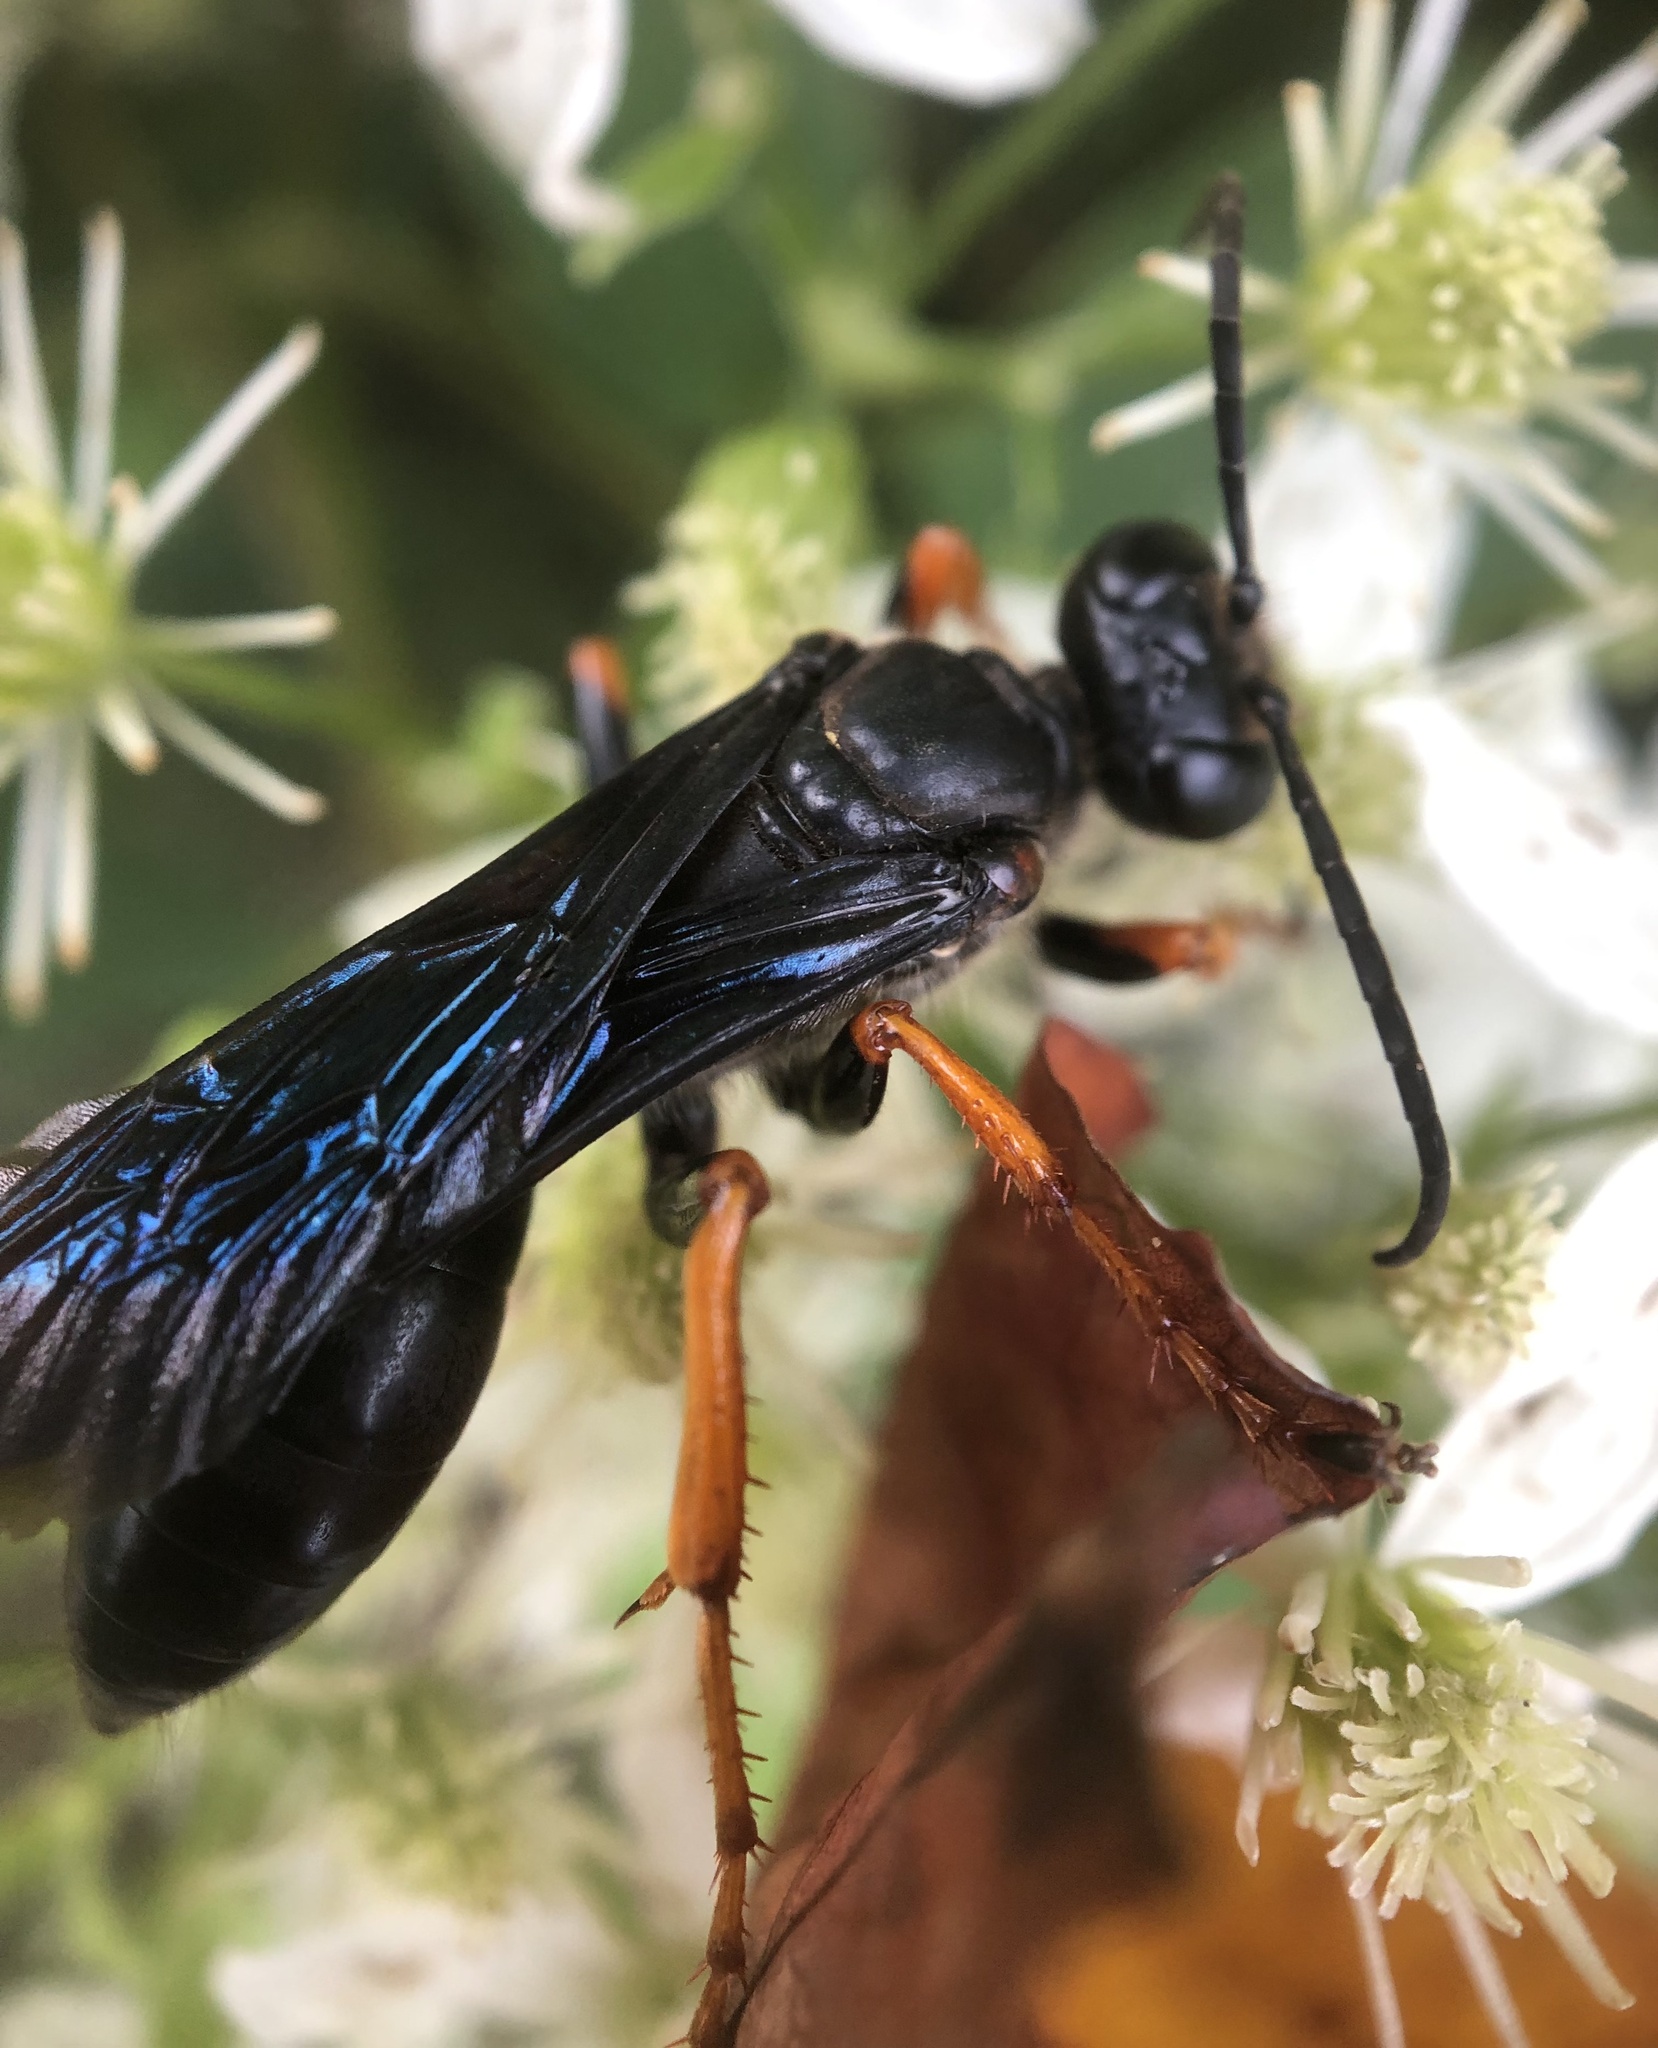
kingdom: Animalia
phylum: Arthropoda
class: Insecta
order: Hymenoptera
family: Sphecidae
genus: Sphex
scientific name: Sphex nudus
